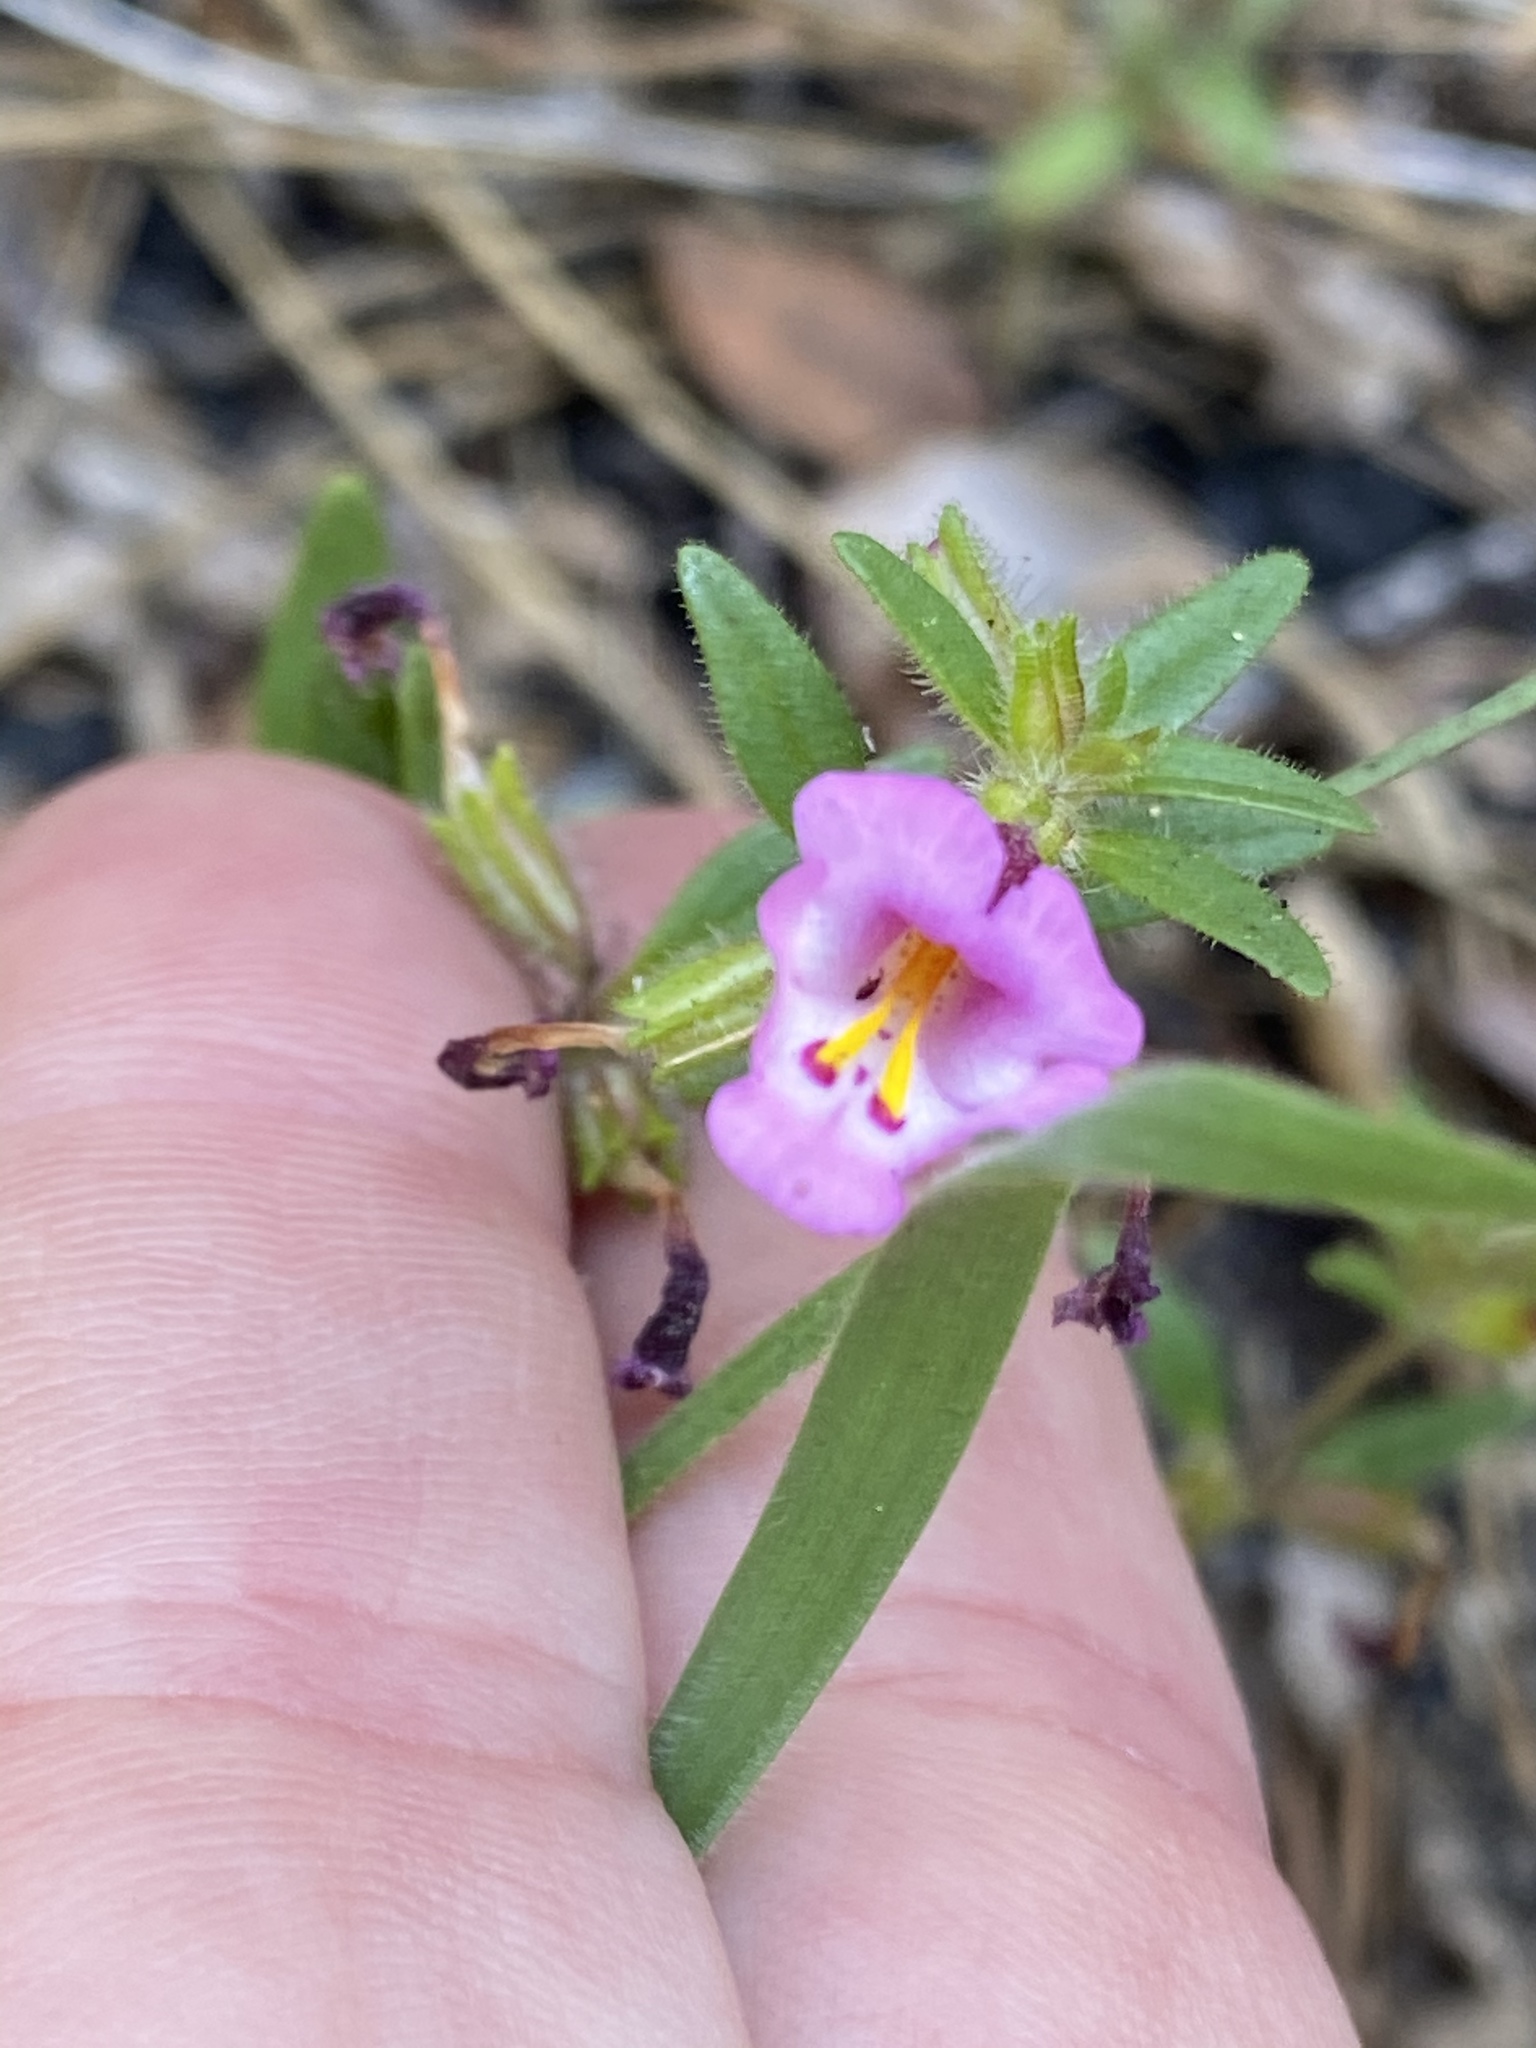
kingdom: Plantae
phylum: Tracheophyta
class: Magnoliopsida
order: Lamiales
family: Phrymaceae
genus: Diplacus
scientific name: Diplacus torreyi
